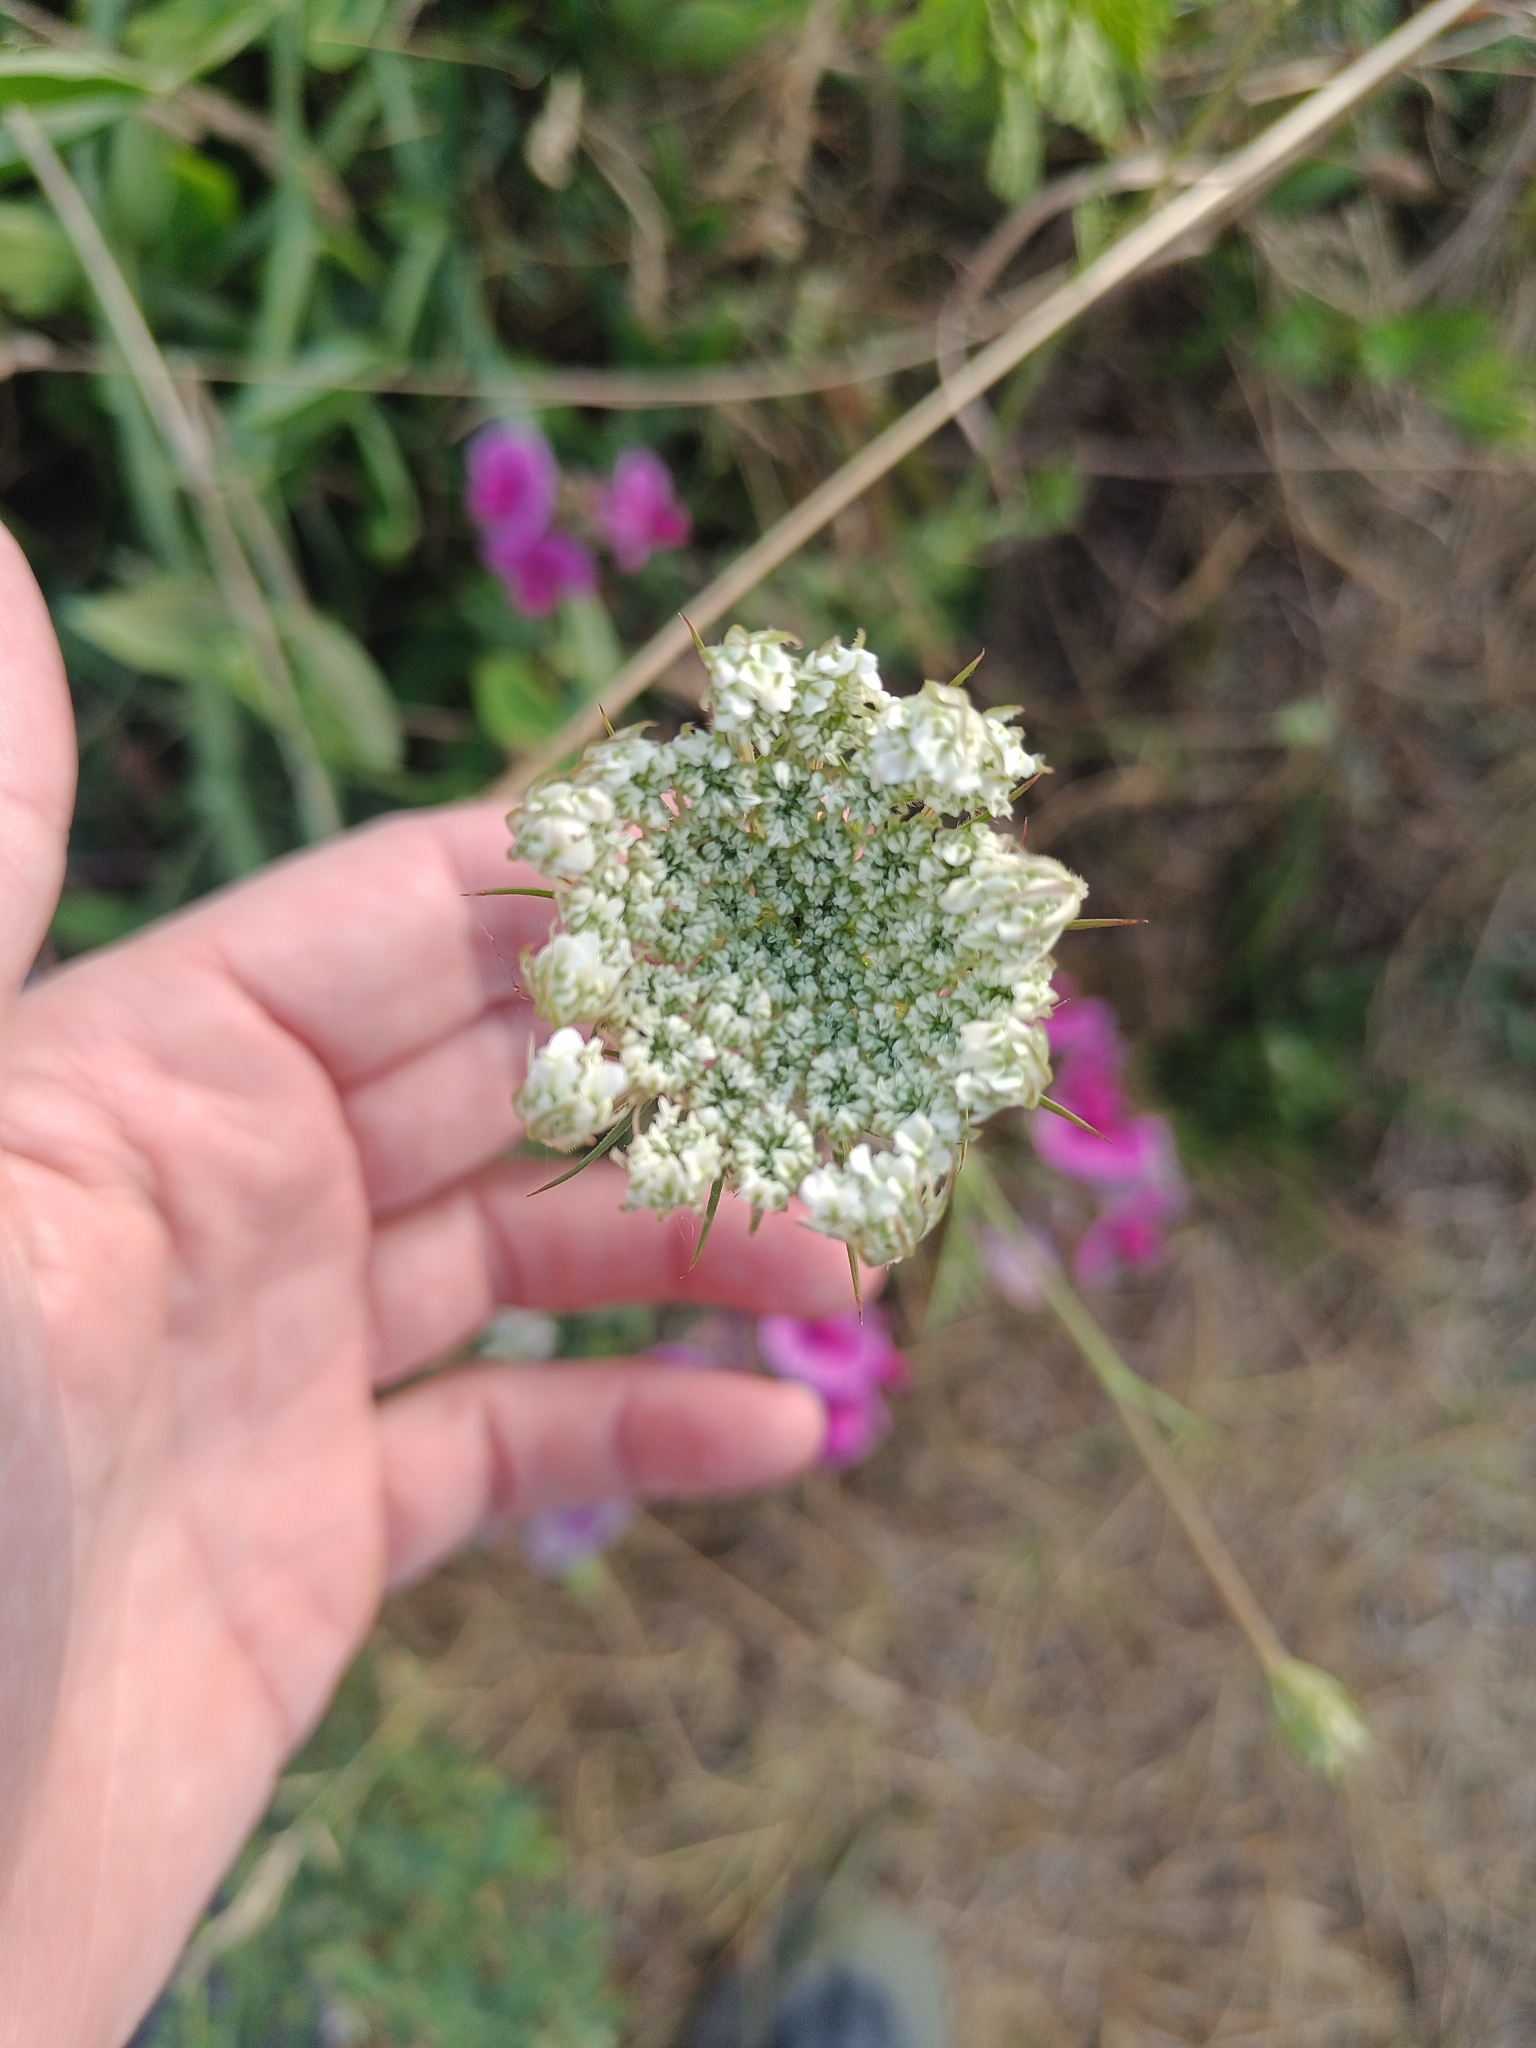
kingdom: Plantae
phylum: Tracheophyta
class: Magnoliopsida
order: Apiales
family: Apiaceae
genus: Daucus
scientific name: Daucus carota
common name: Wild carrot
